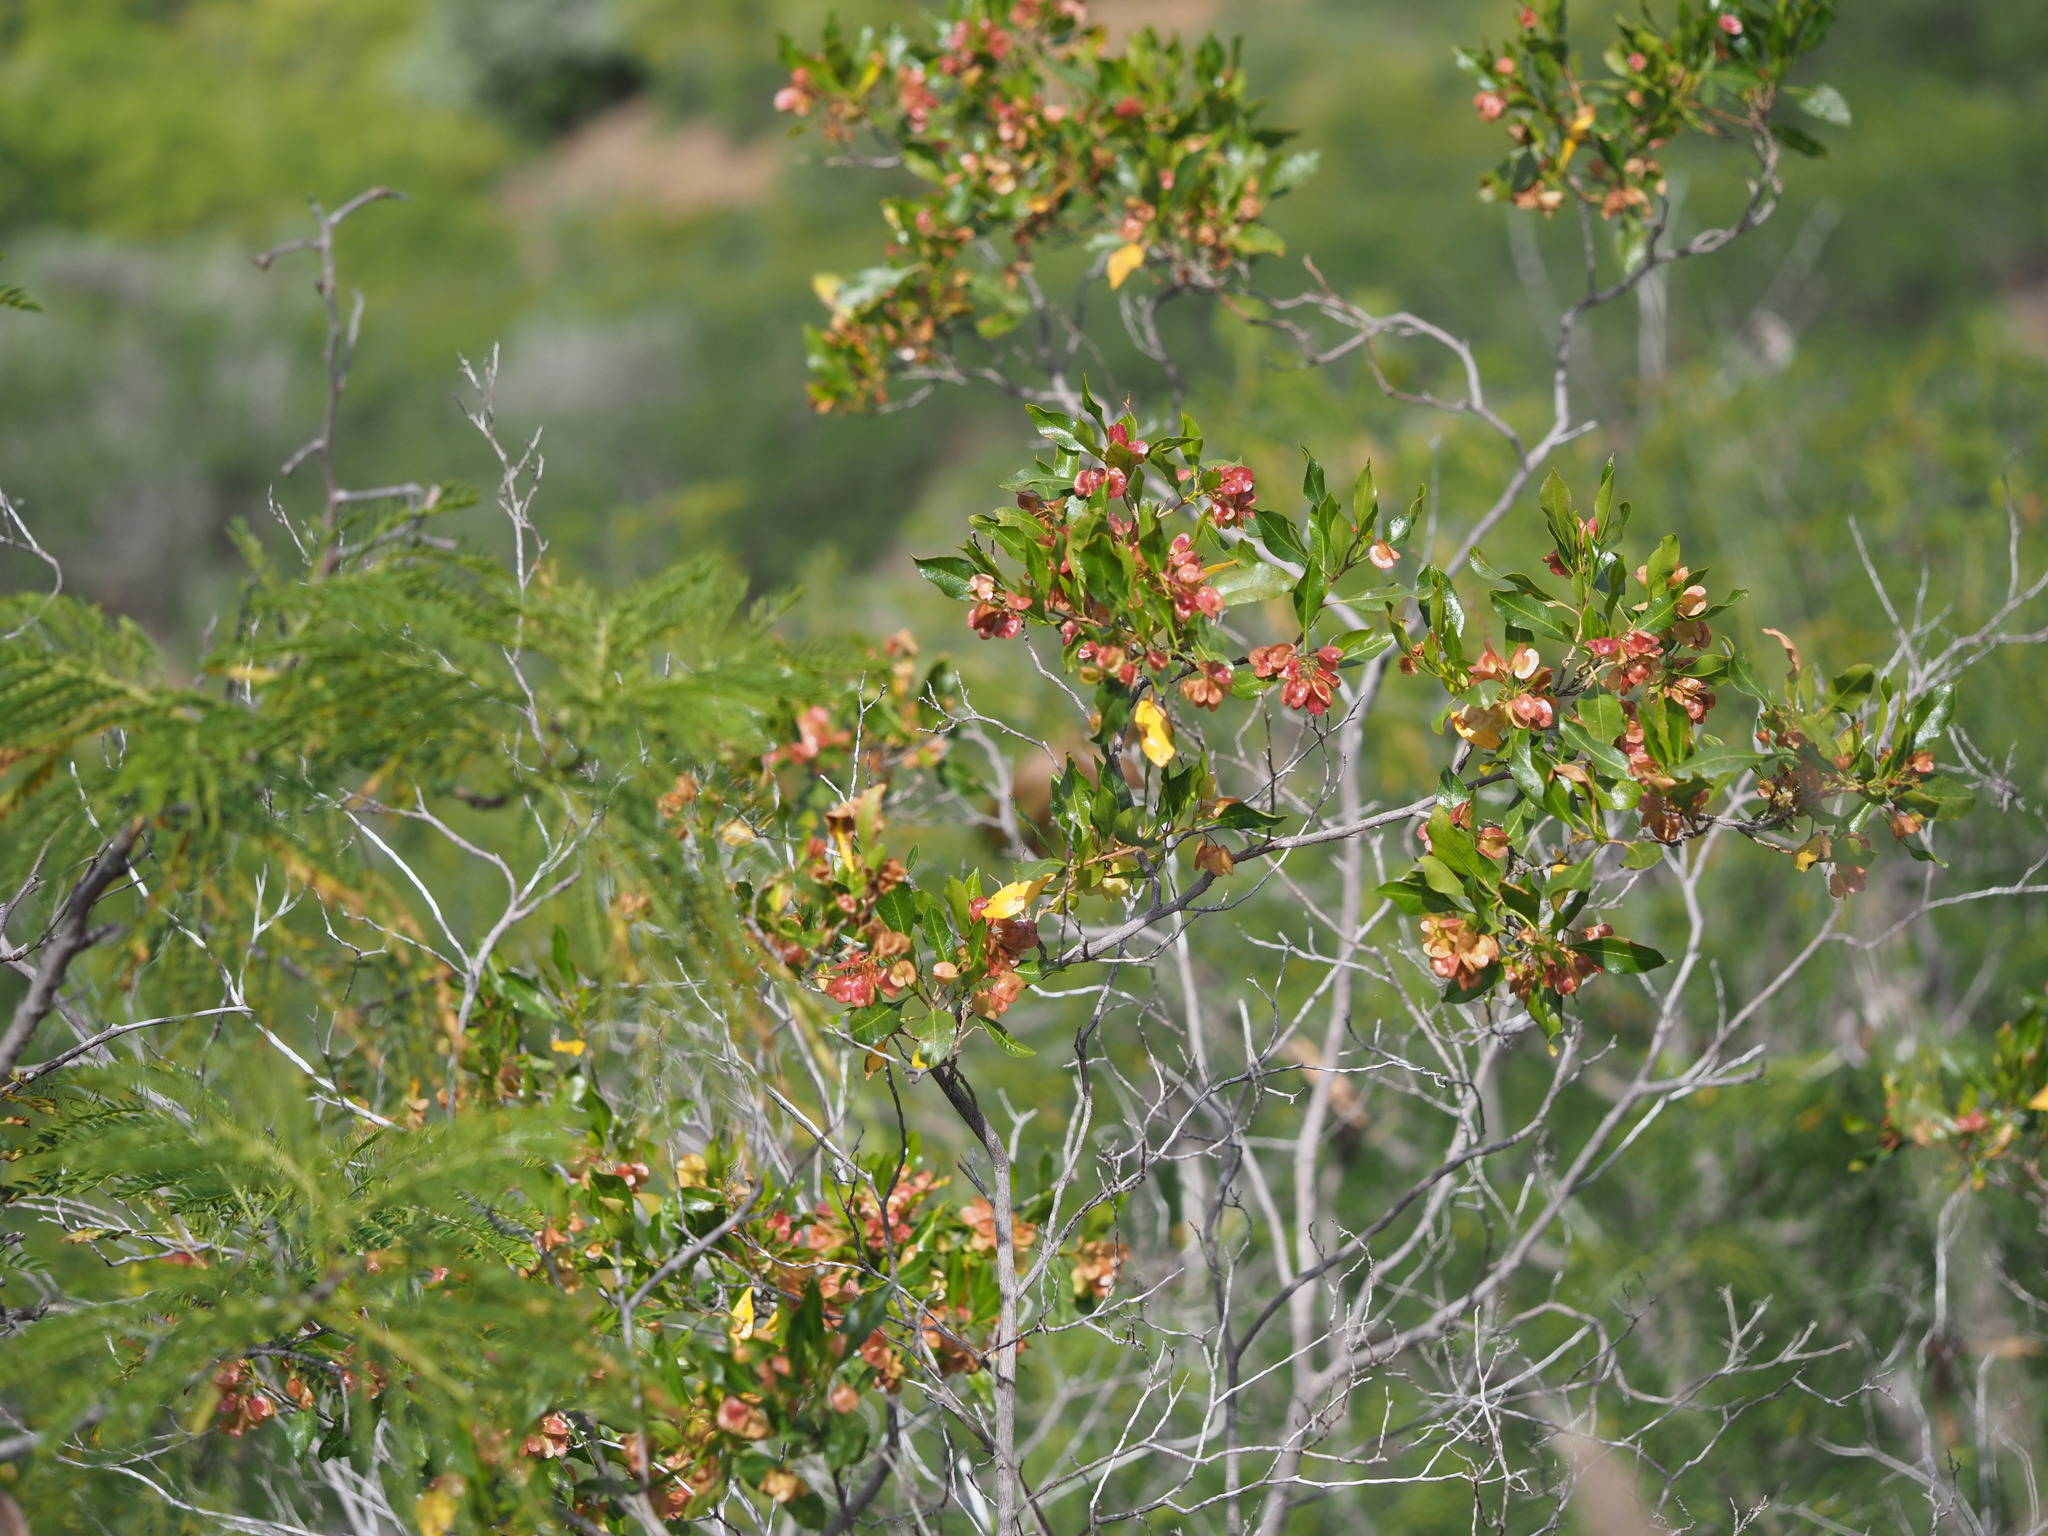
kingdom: Plantae
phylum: Tracheophyta
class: Magnoliopsida
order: Sapindales
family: Sapindaceae
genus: Dodonaea
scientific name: Dodonaea viscosa
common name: Hopbush
